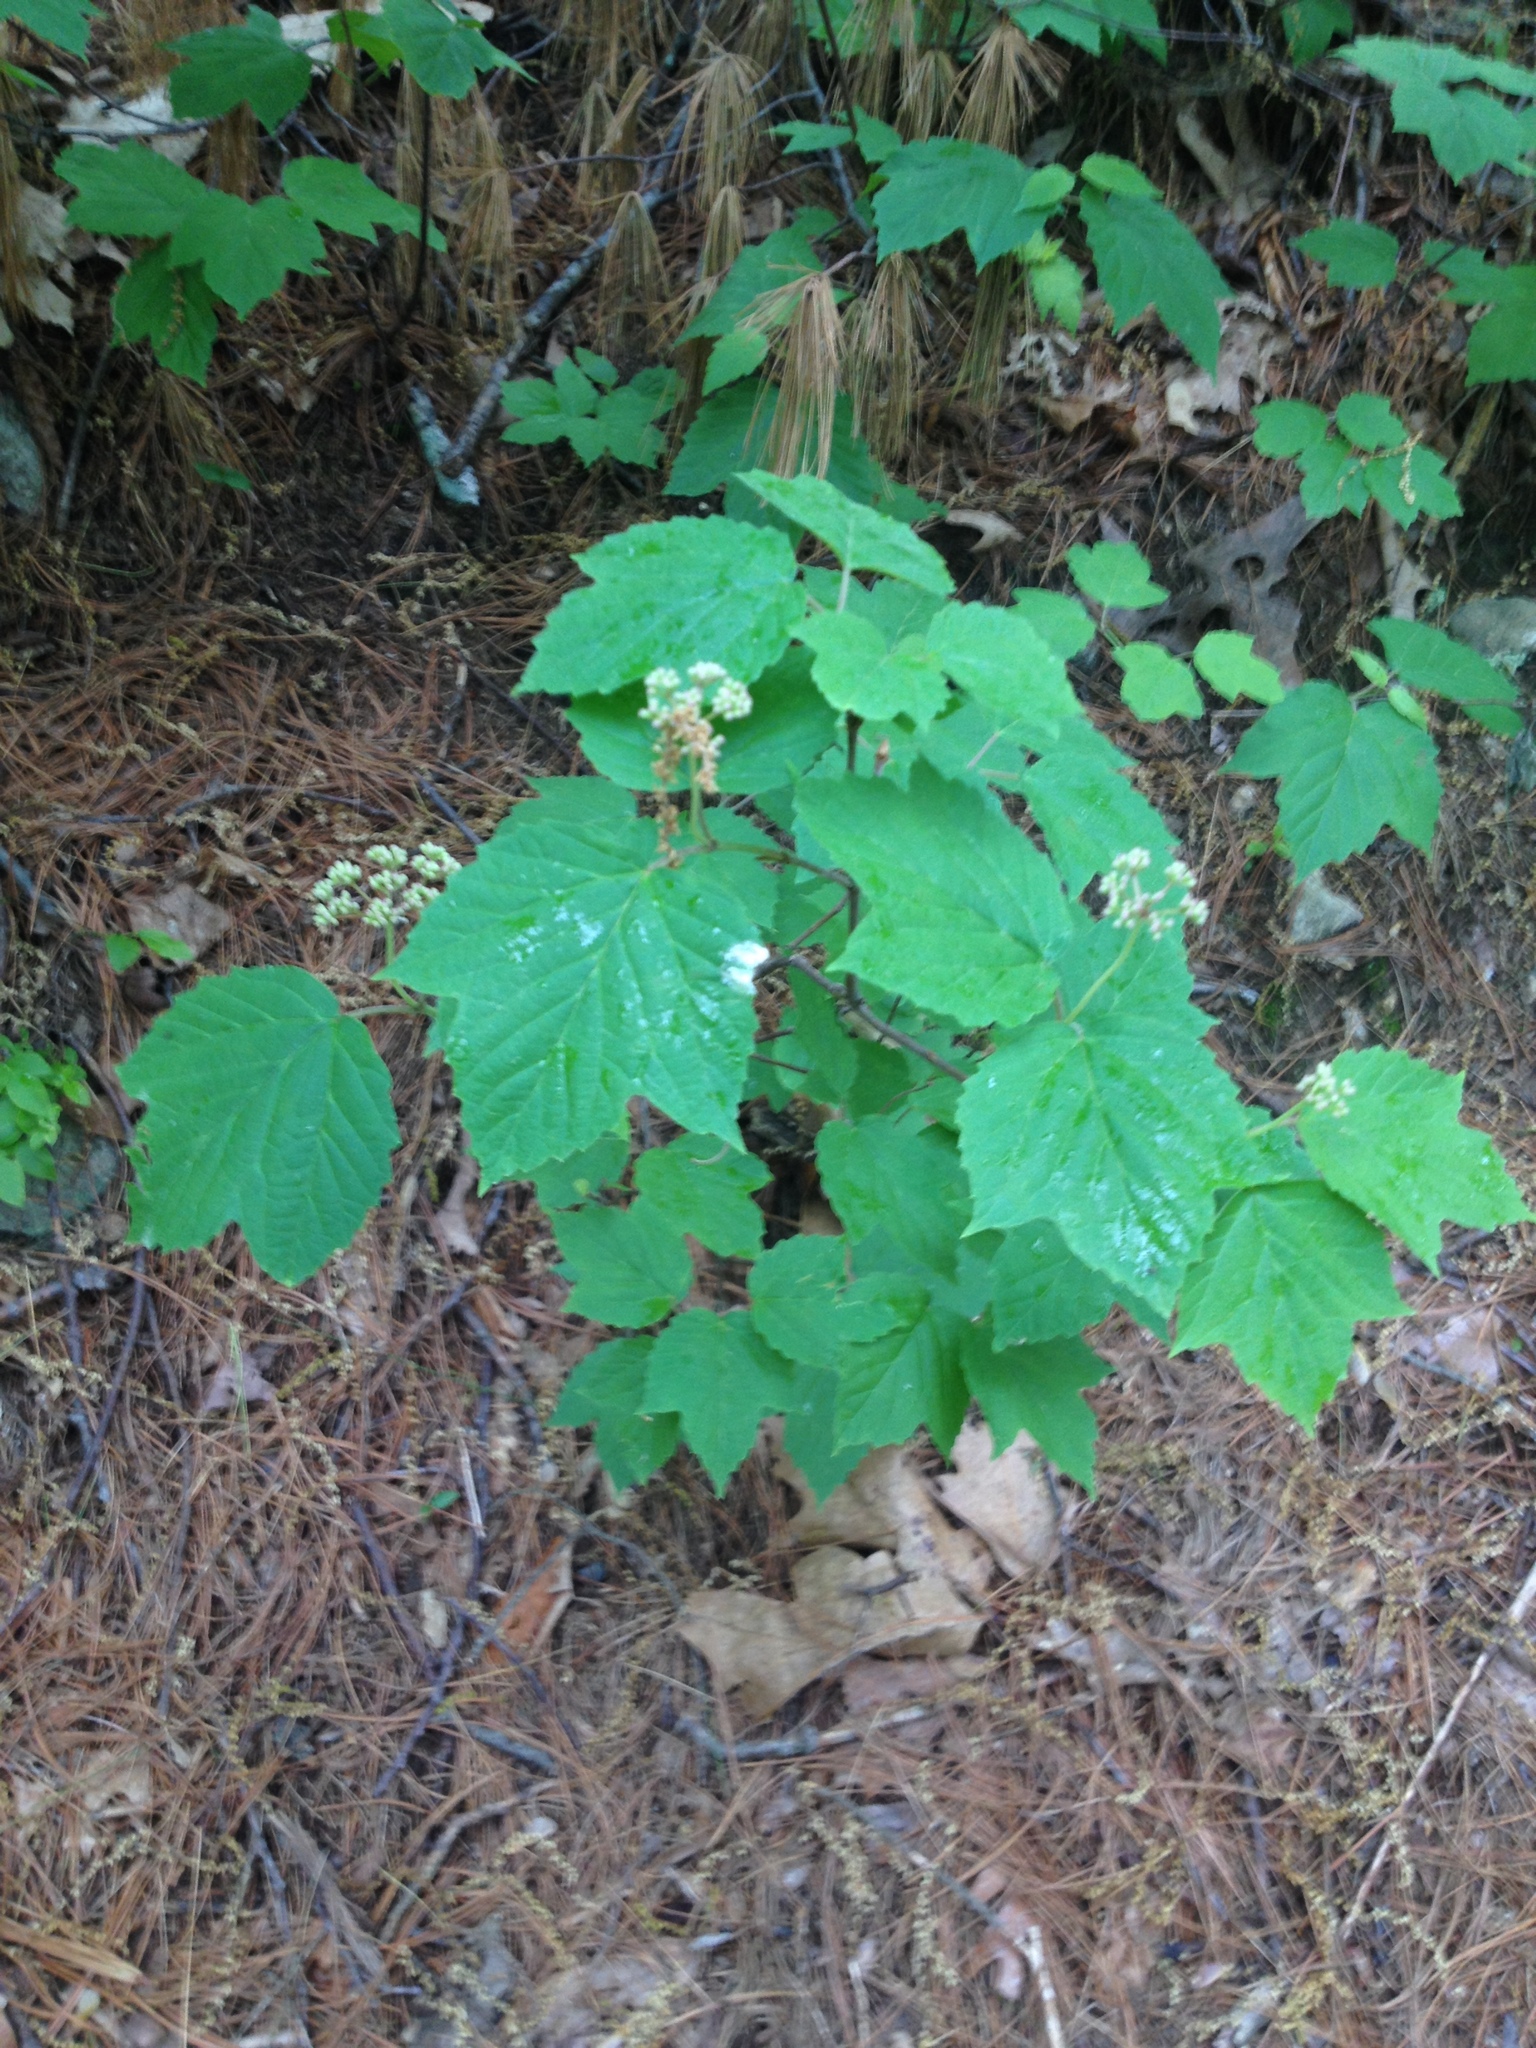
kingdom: Plantae
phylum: Tracheophyta
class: Magnoliopsida
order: Dipsacales
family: Viburnaceae
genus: Viburnum
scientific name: Viburnum acerifolium
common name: Dockmackie
